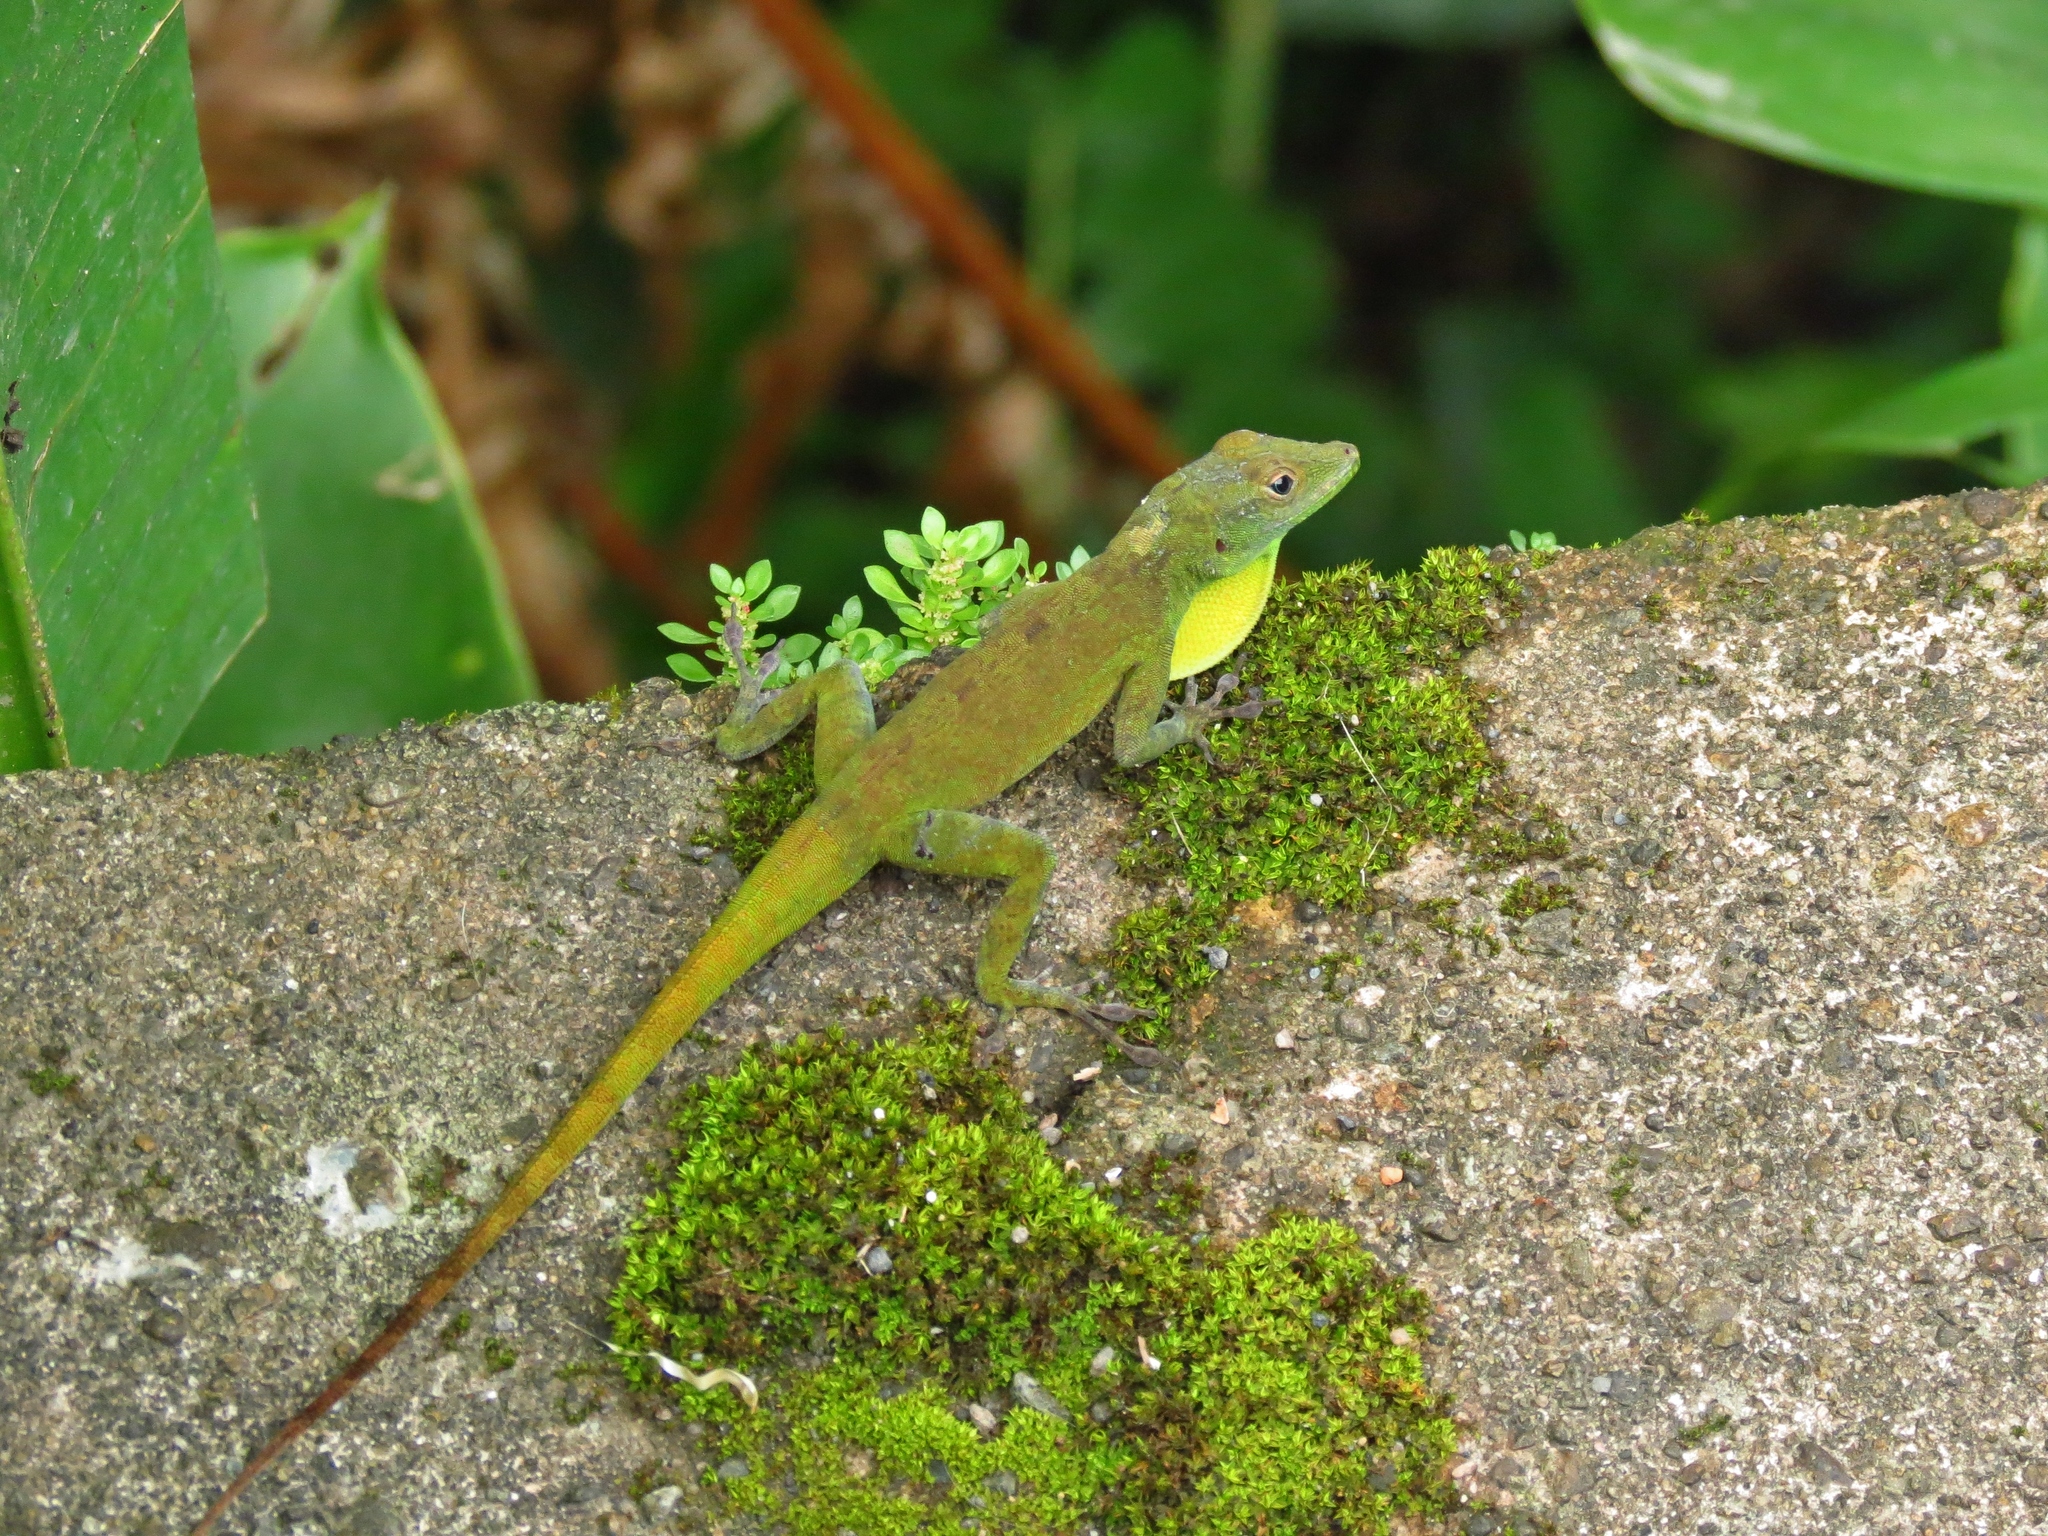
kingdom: Animalia
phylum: Chordata
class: Squamata
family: Dactyloidae
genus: Anolis
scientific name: Anolis evermanni
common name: Emerald anole
